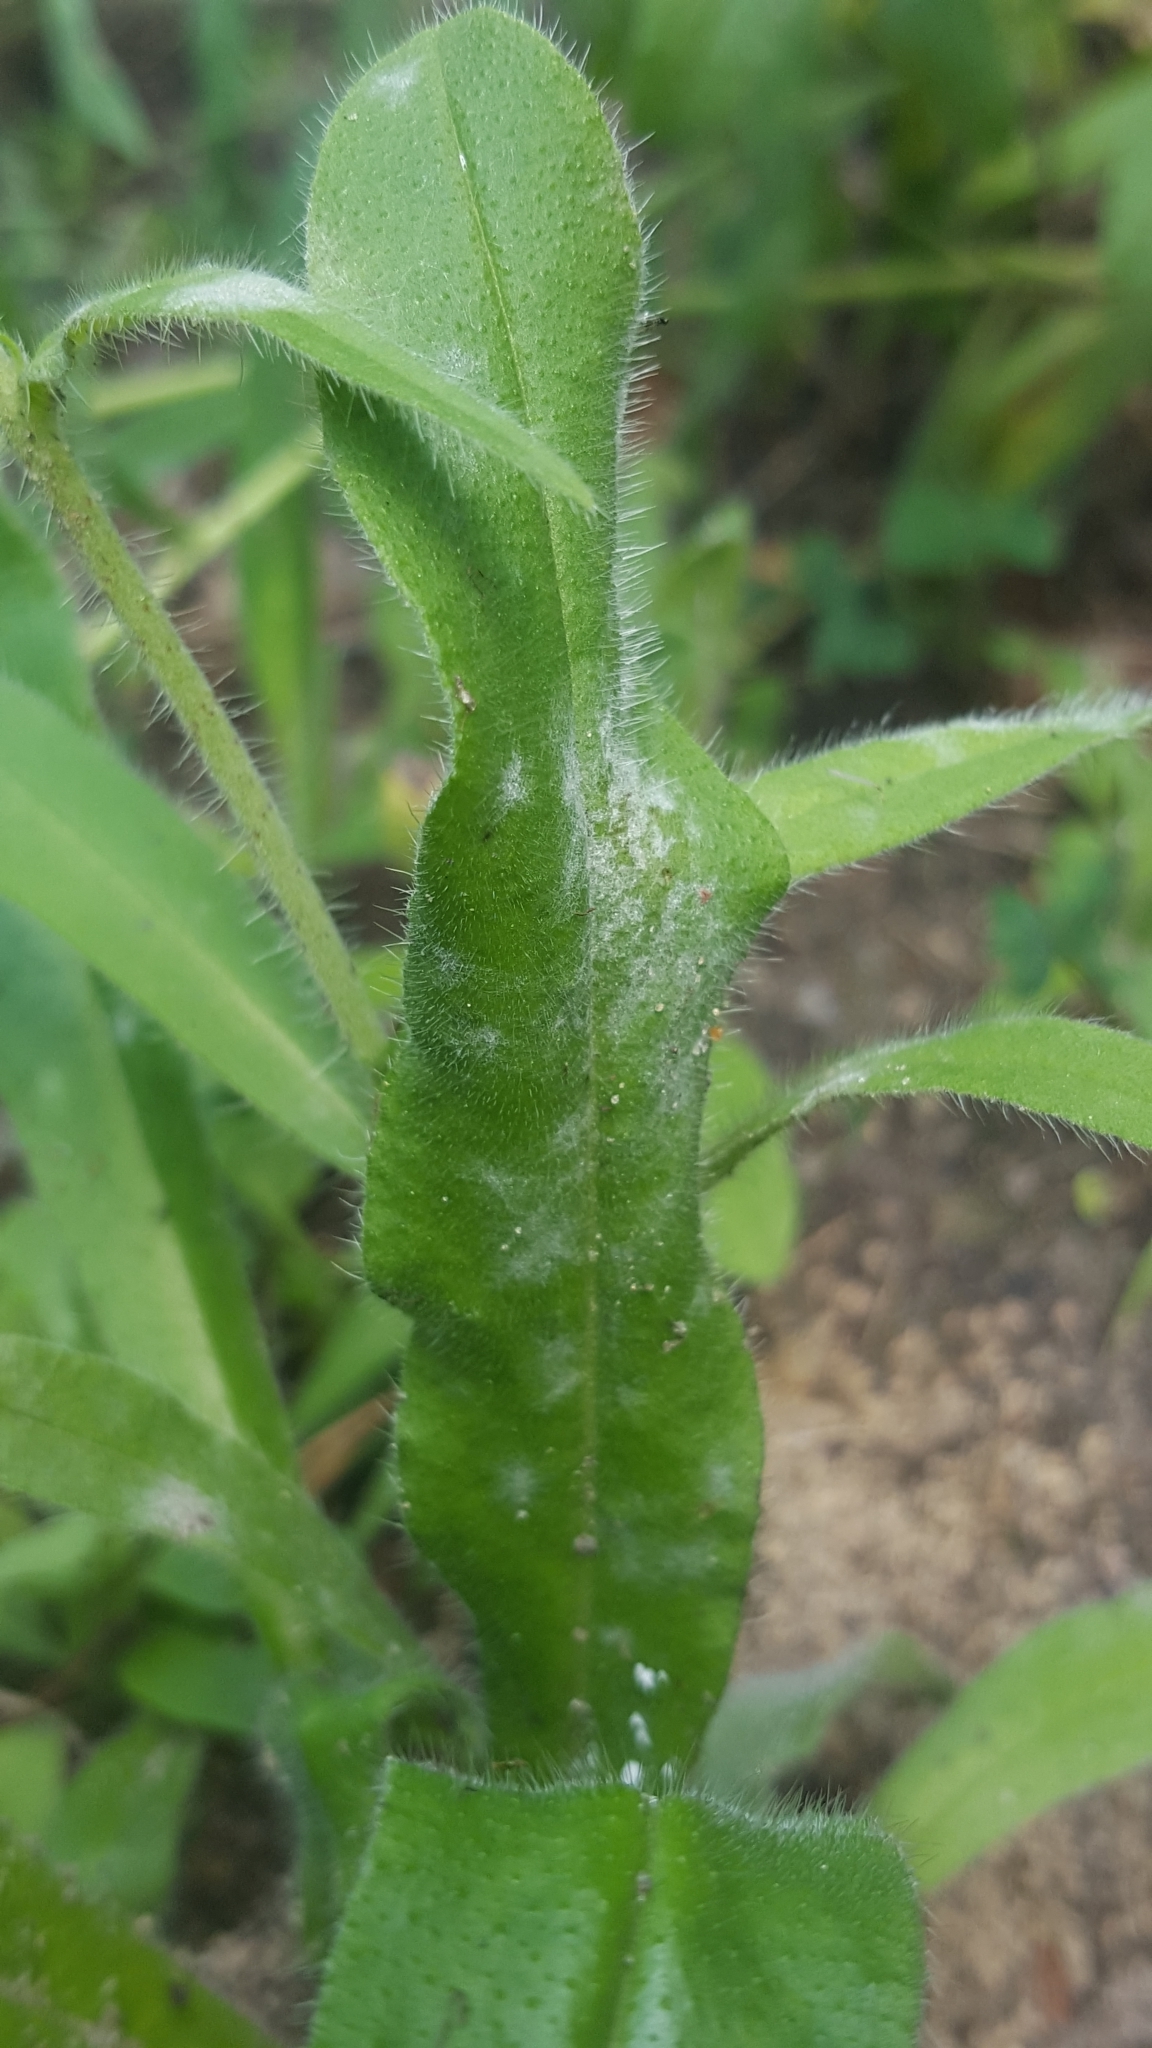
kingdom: Fungi
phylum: Ascomycota
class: Leotiomycetes
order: Helotiales
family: Erysiphaceae
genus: Golovinomyces
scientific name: Golovinomyces asperifolii
